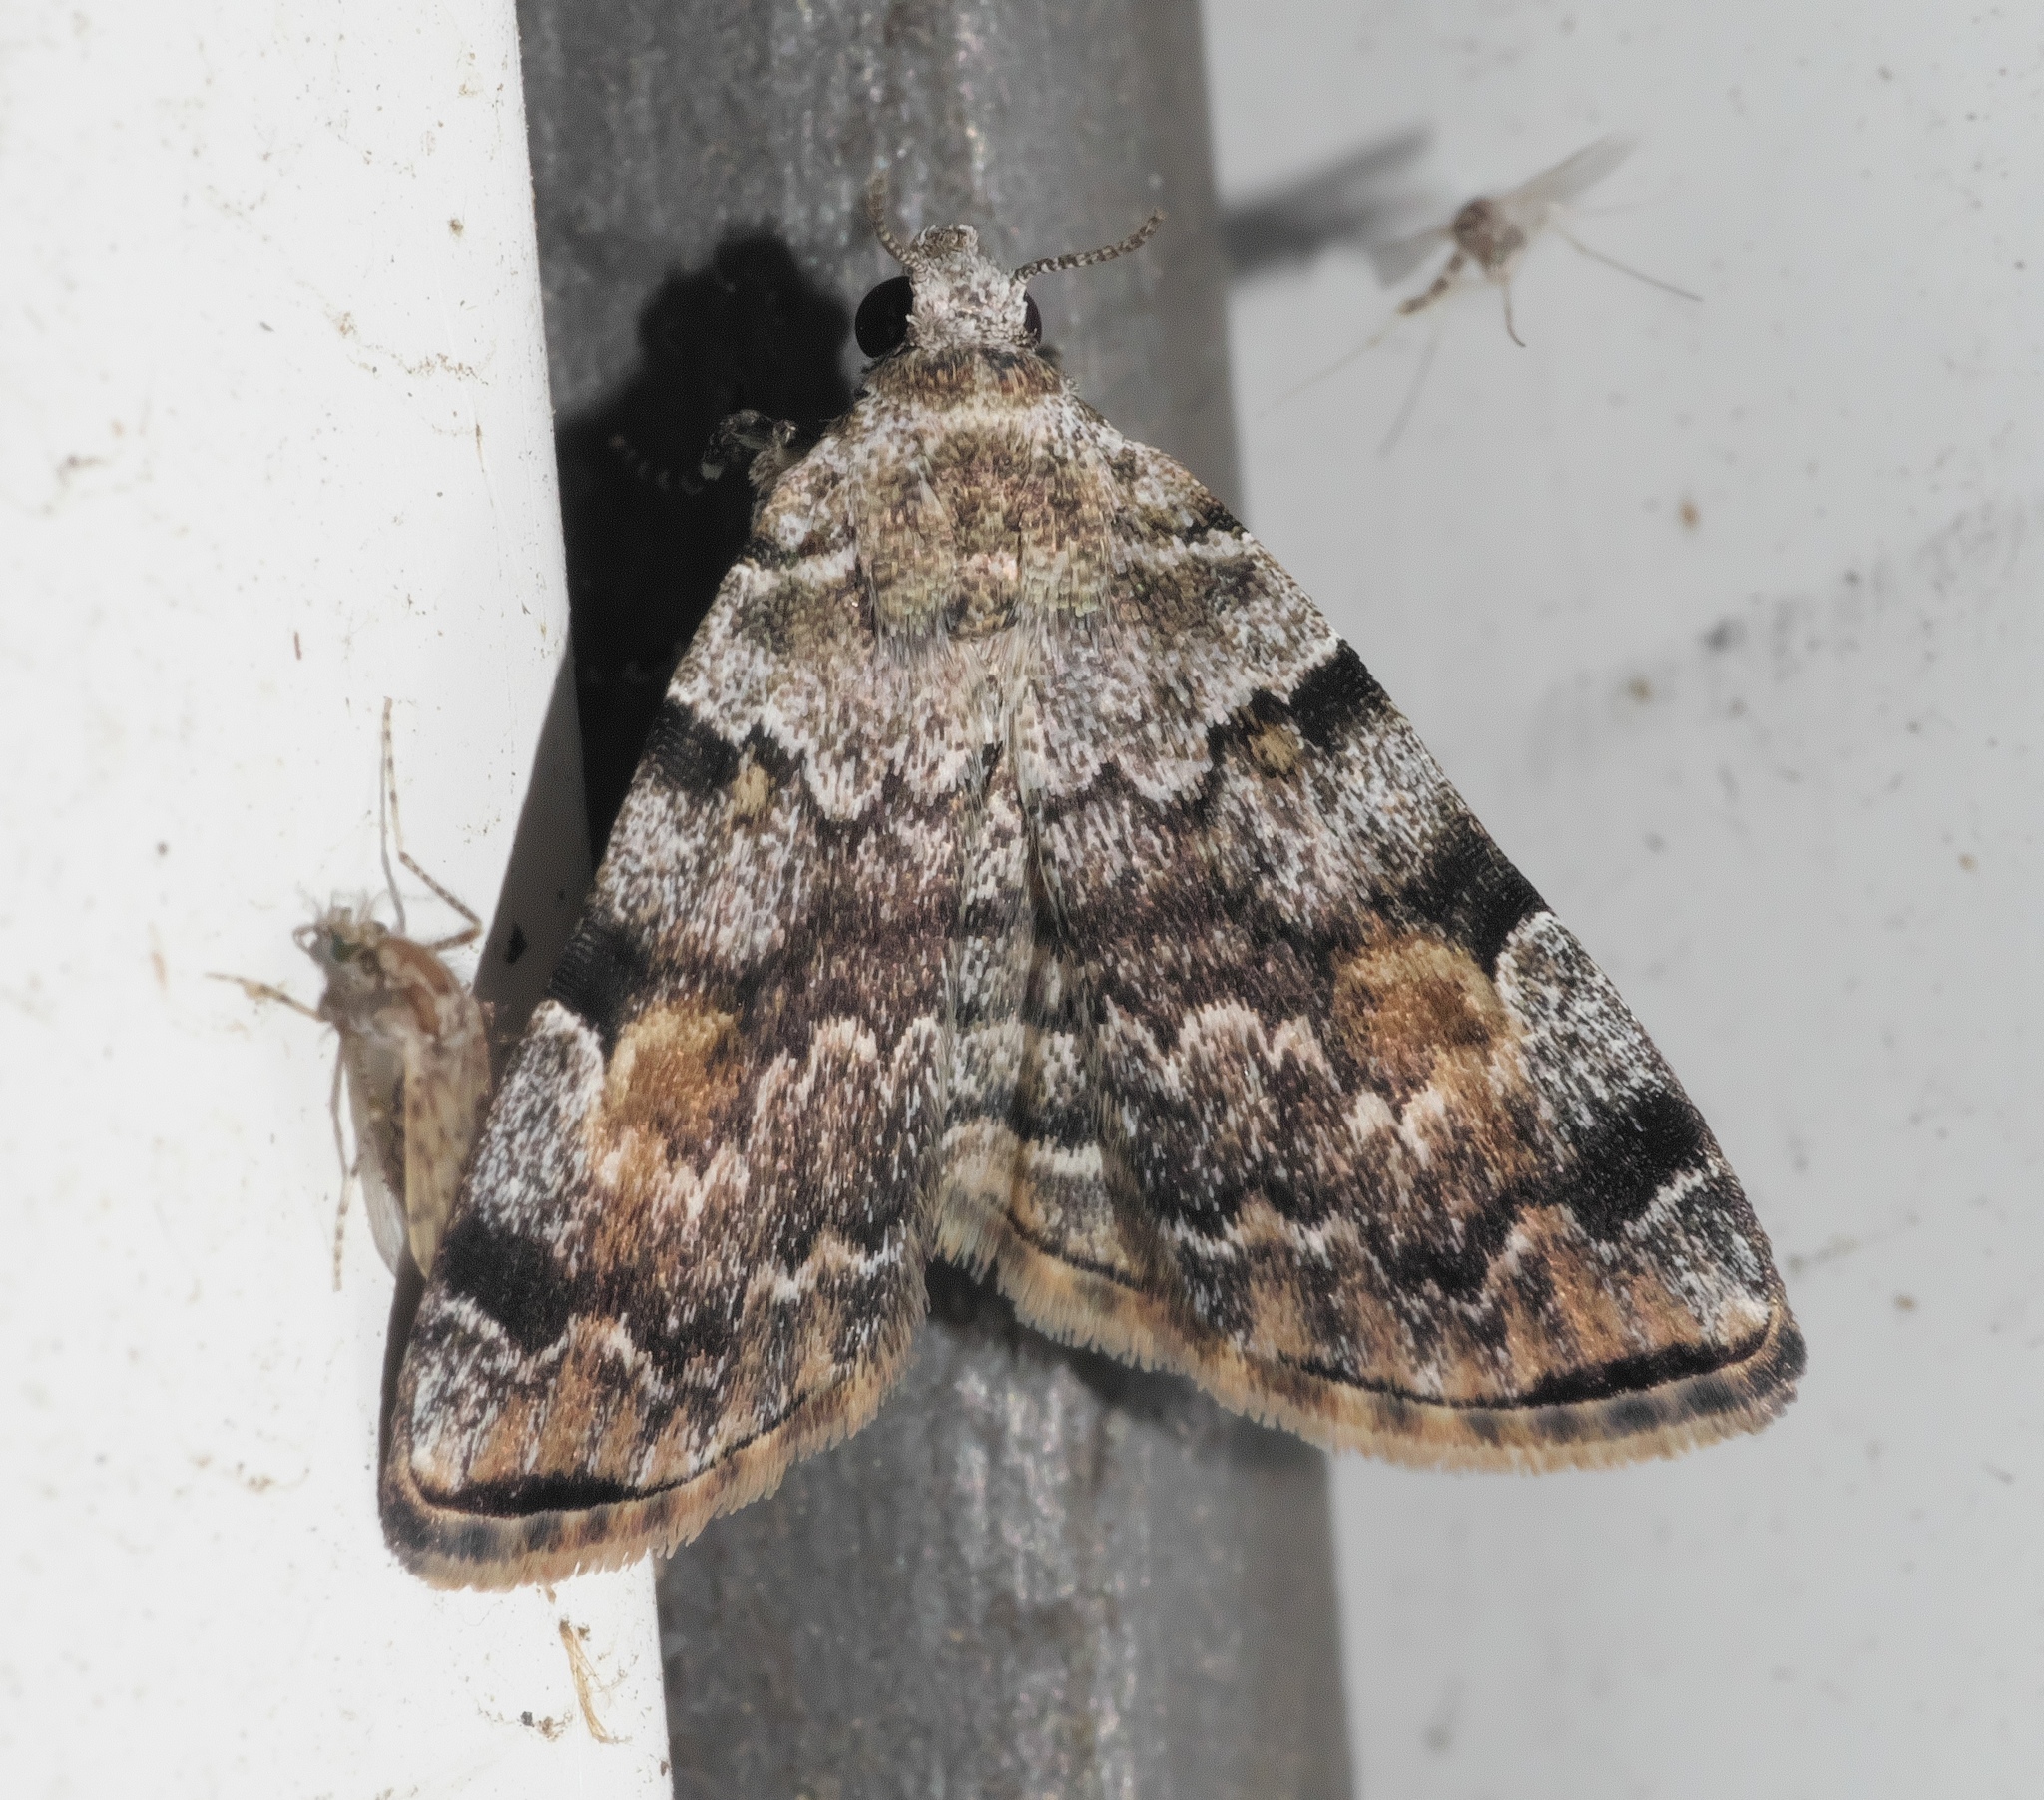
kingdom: Animalia
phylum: Arthropoda
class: Insecta
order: Lepidoptera
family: Erebidae
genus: Idia
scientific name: Idia americalis
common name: American idia moth
